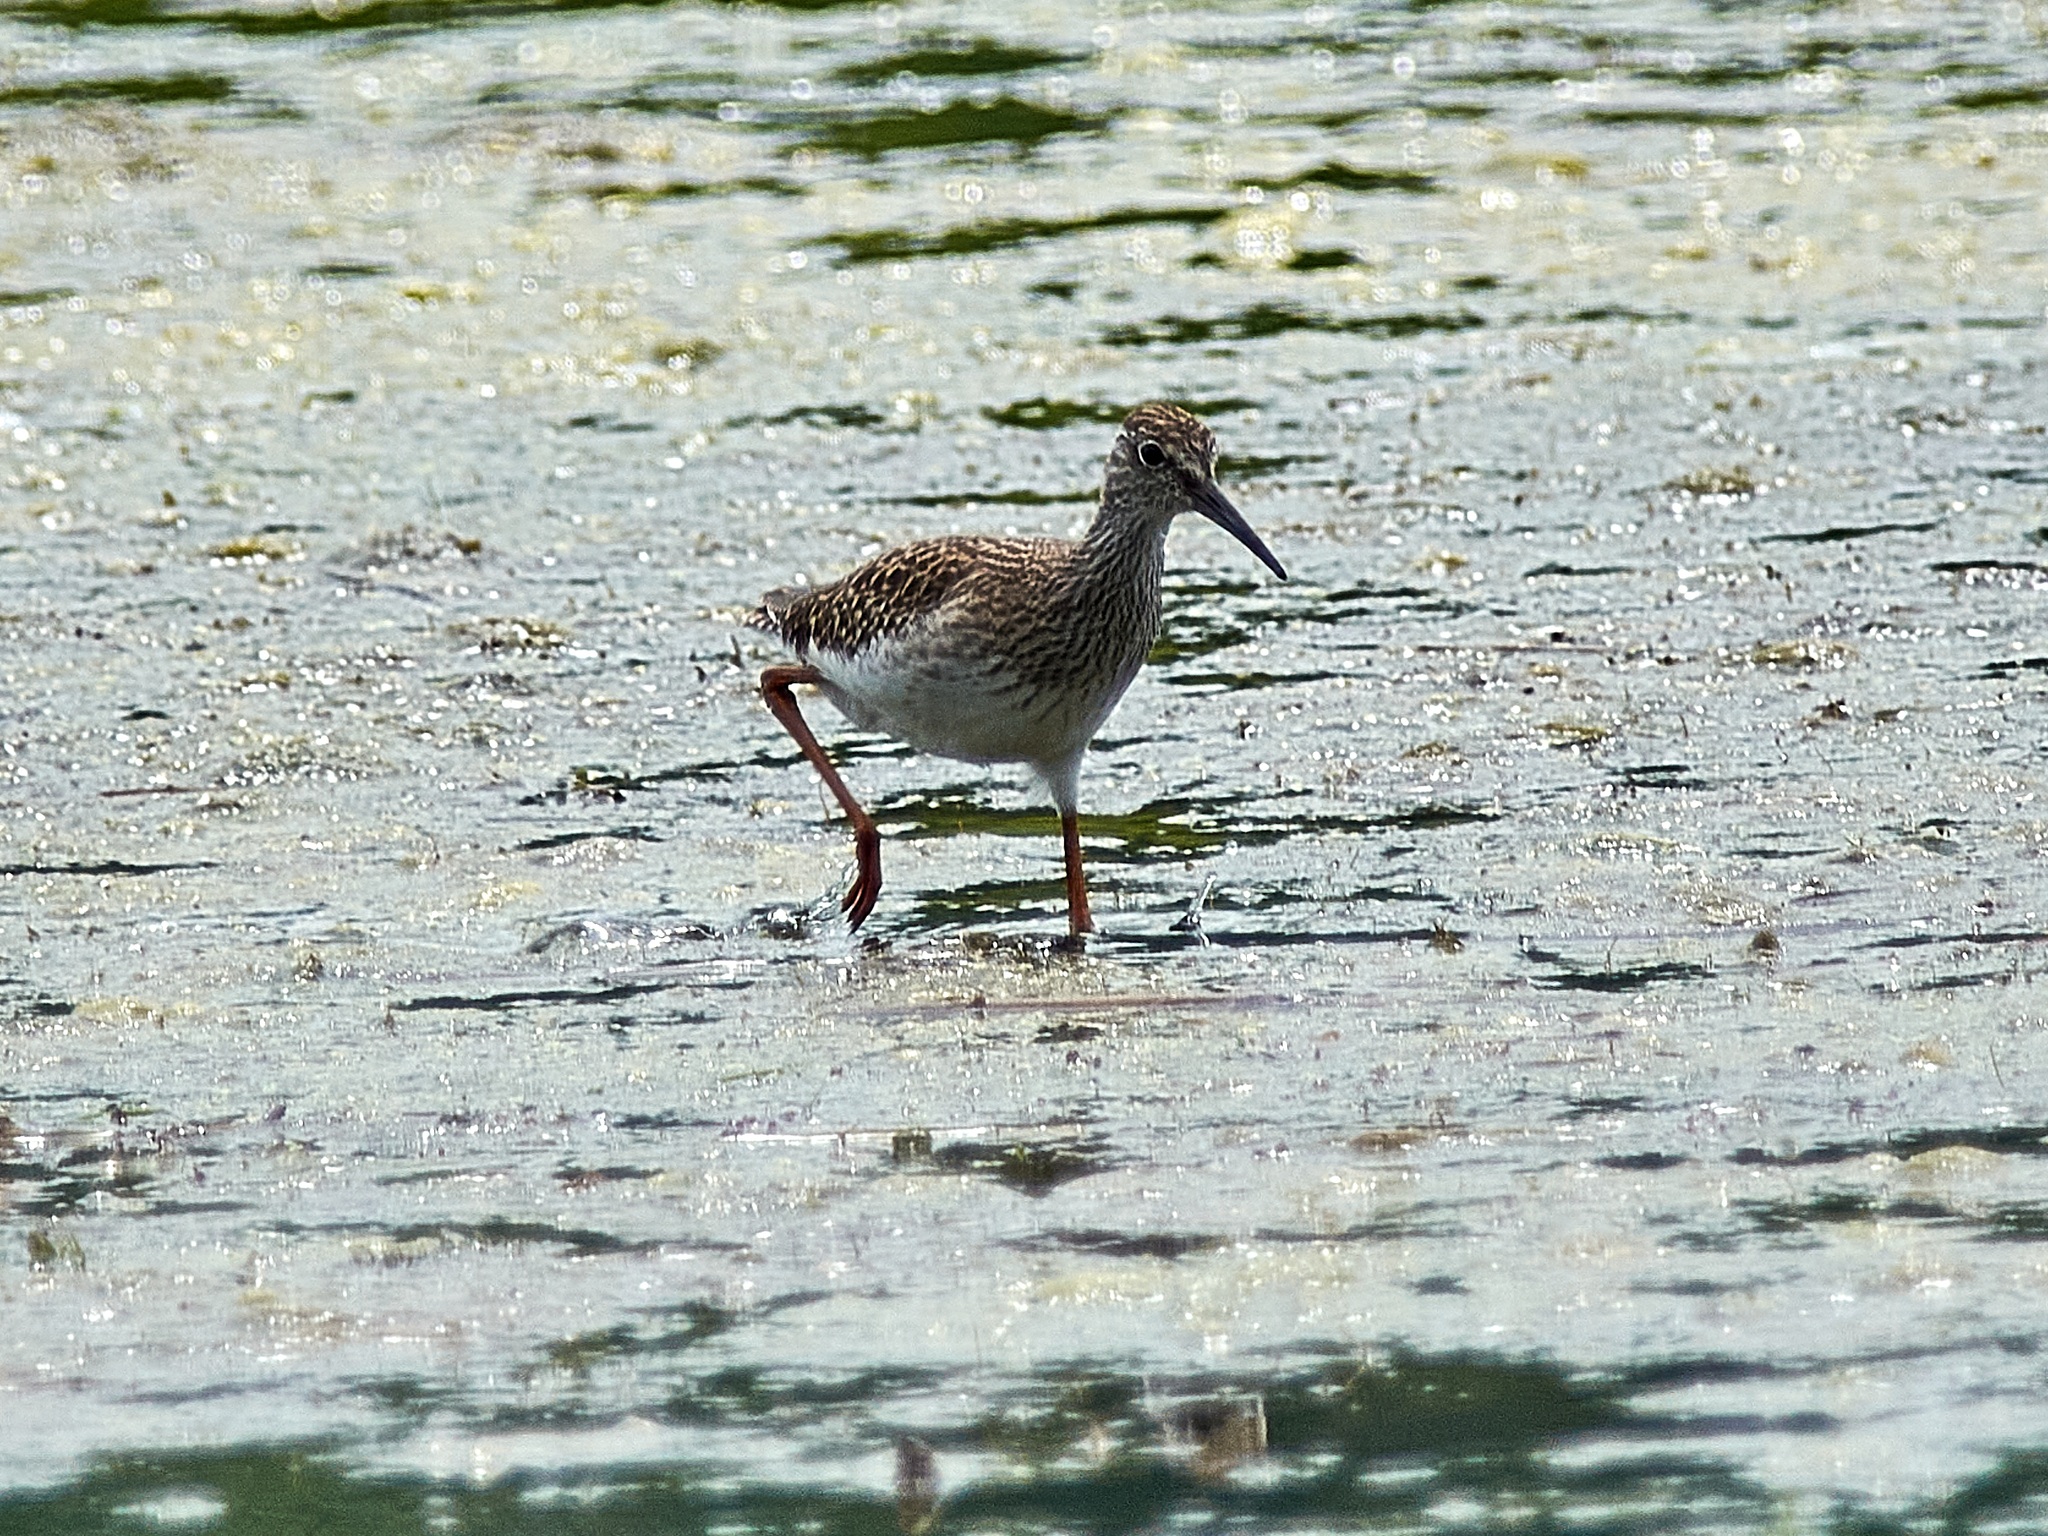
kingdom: Animalia
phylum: Chordata
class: Aves
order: Charadriiformes
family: Scolopacidae
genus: Tringa
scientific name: Tringa glareola
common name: Wood sandpiper
